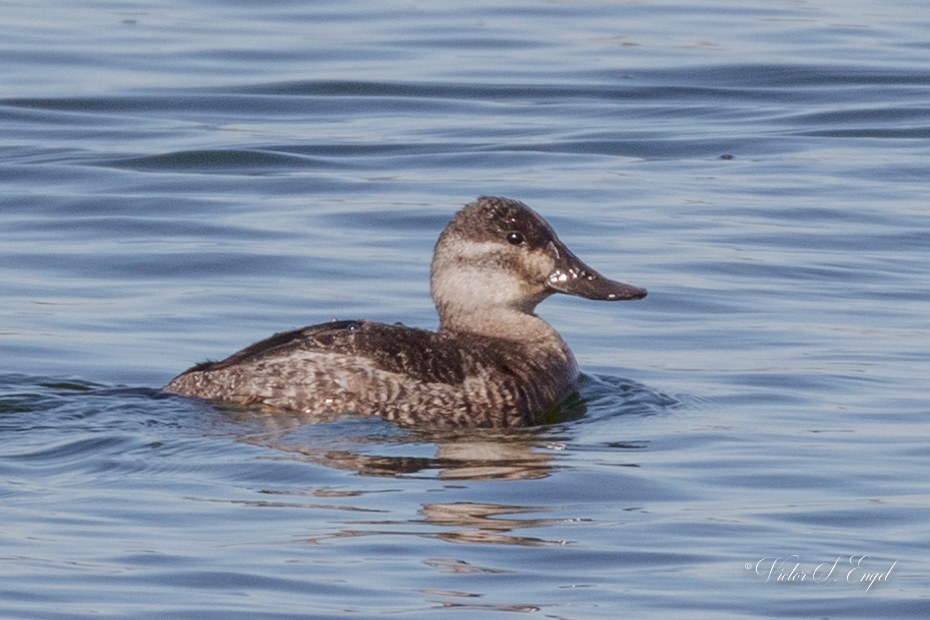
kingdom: Animalia
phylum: Chordata
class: Aves
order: Anseriformes
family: Anatidae
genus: Oxyura
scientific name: Oxyura jamaicensis
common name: Ruddy duck
